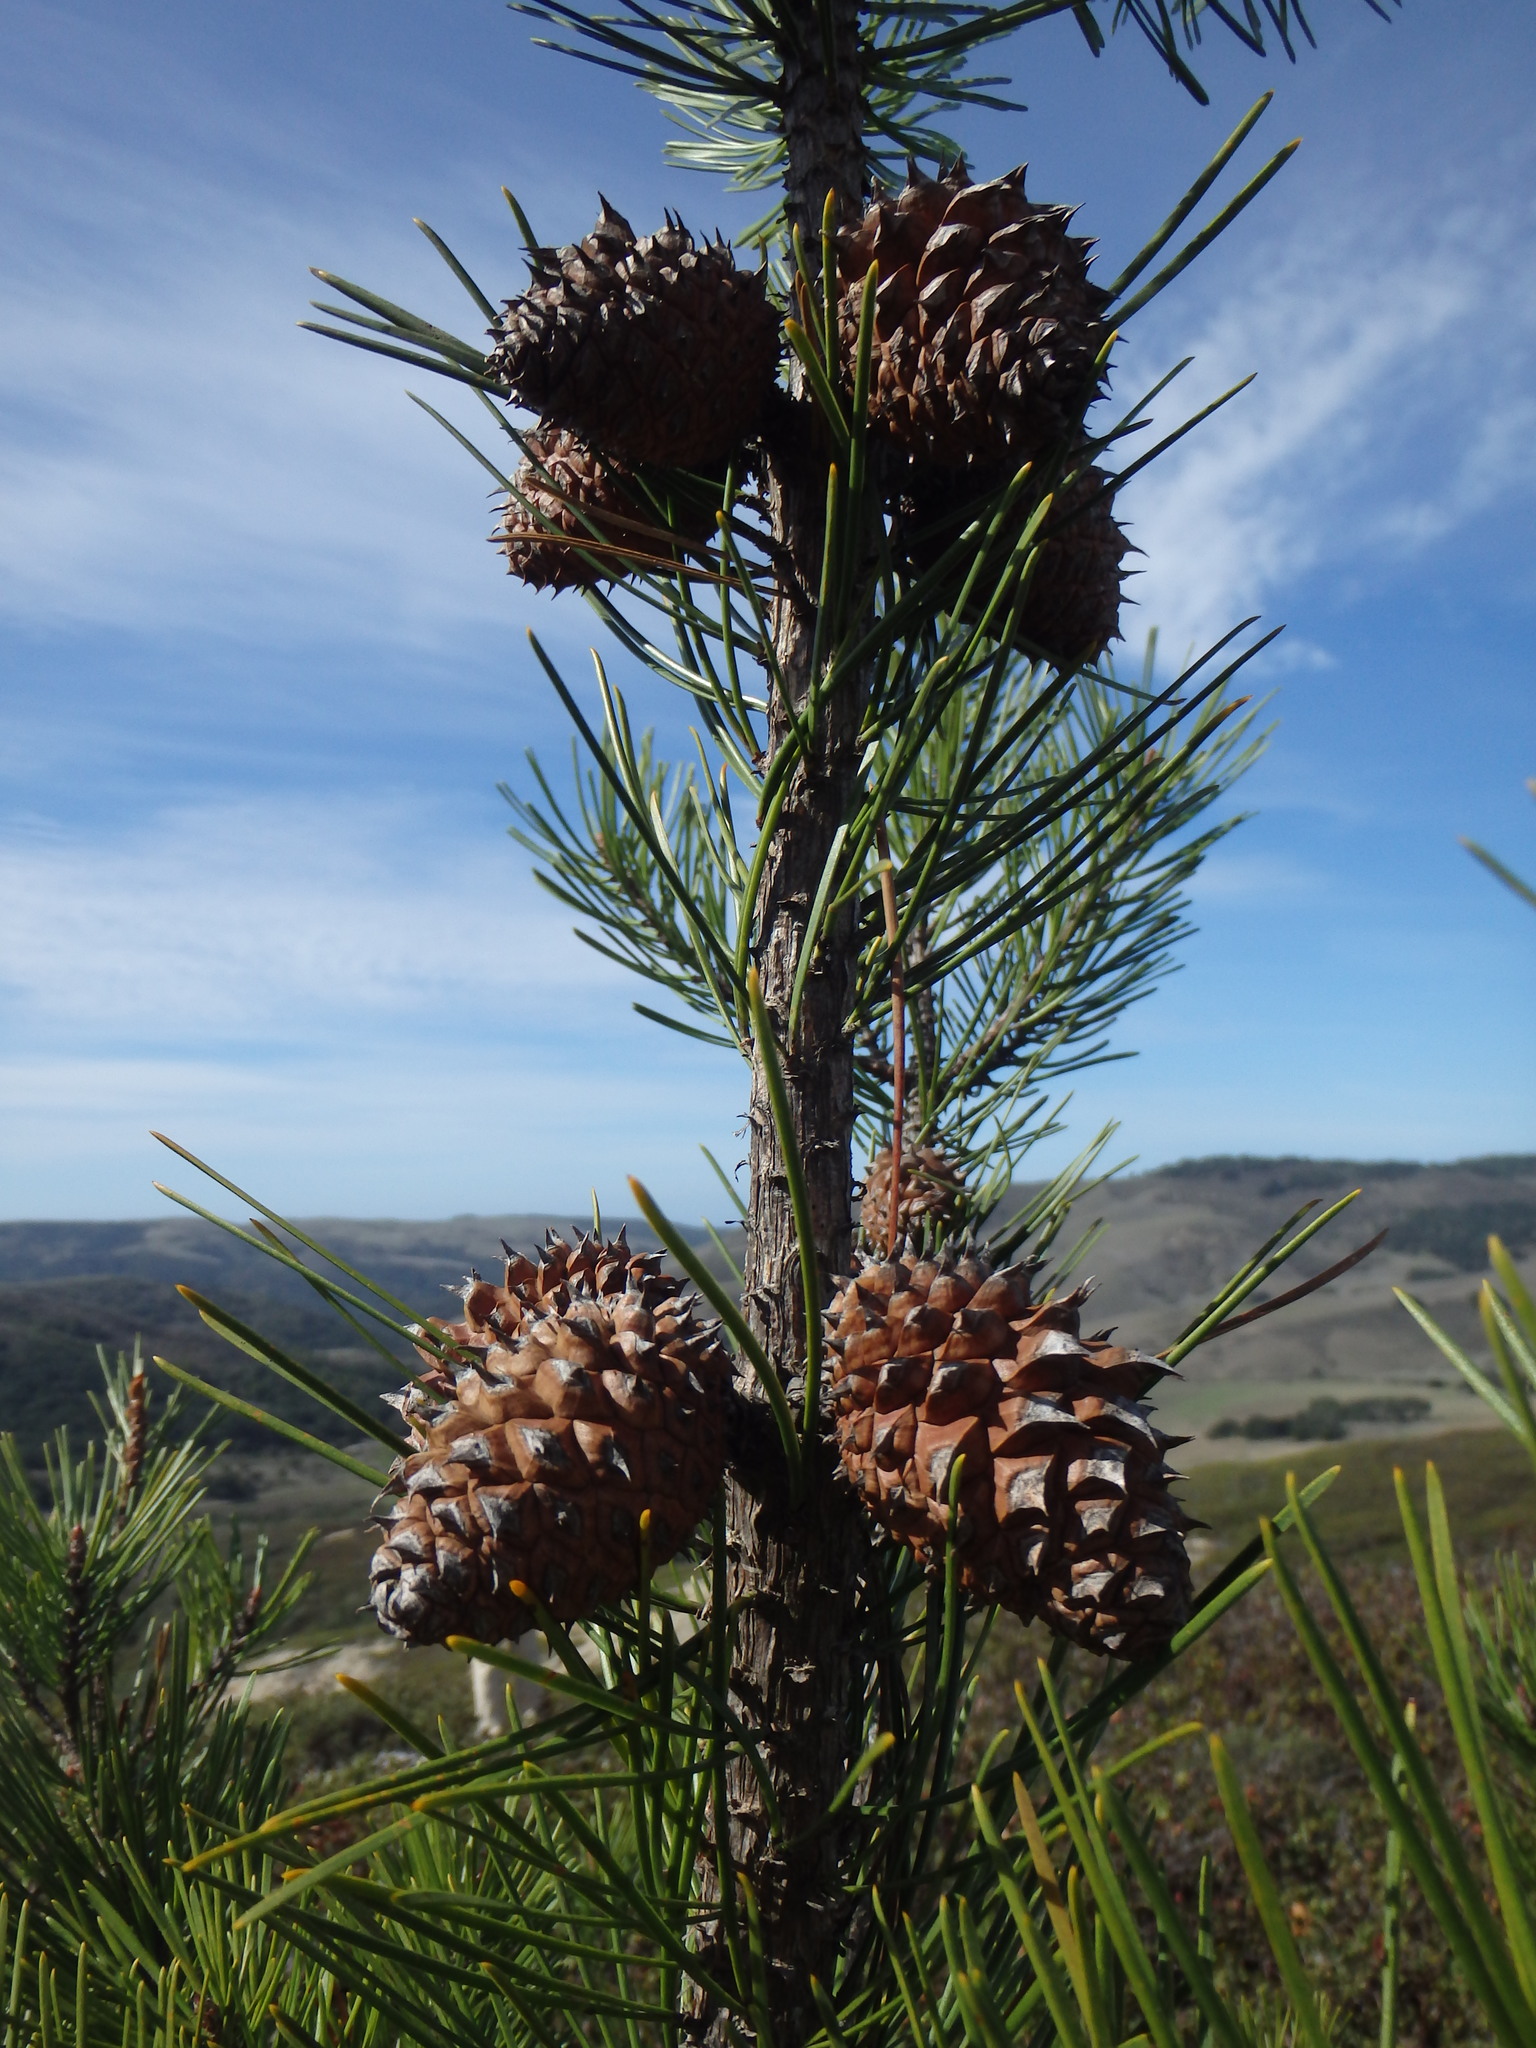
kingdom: Plantae
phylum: Tracheophyta
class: Pinopsida
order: Pinales
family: Pinaceae
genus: Pinus
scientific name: Pinus muricata
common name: Bishop pine
